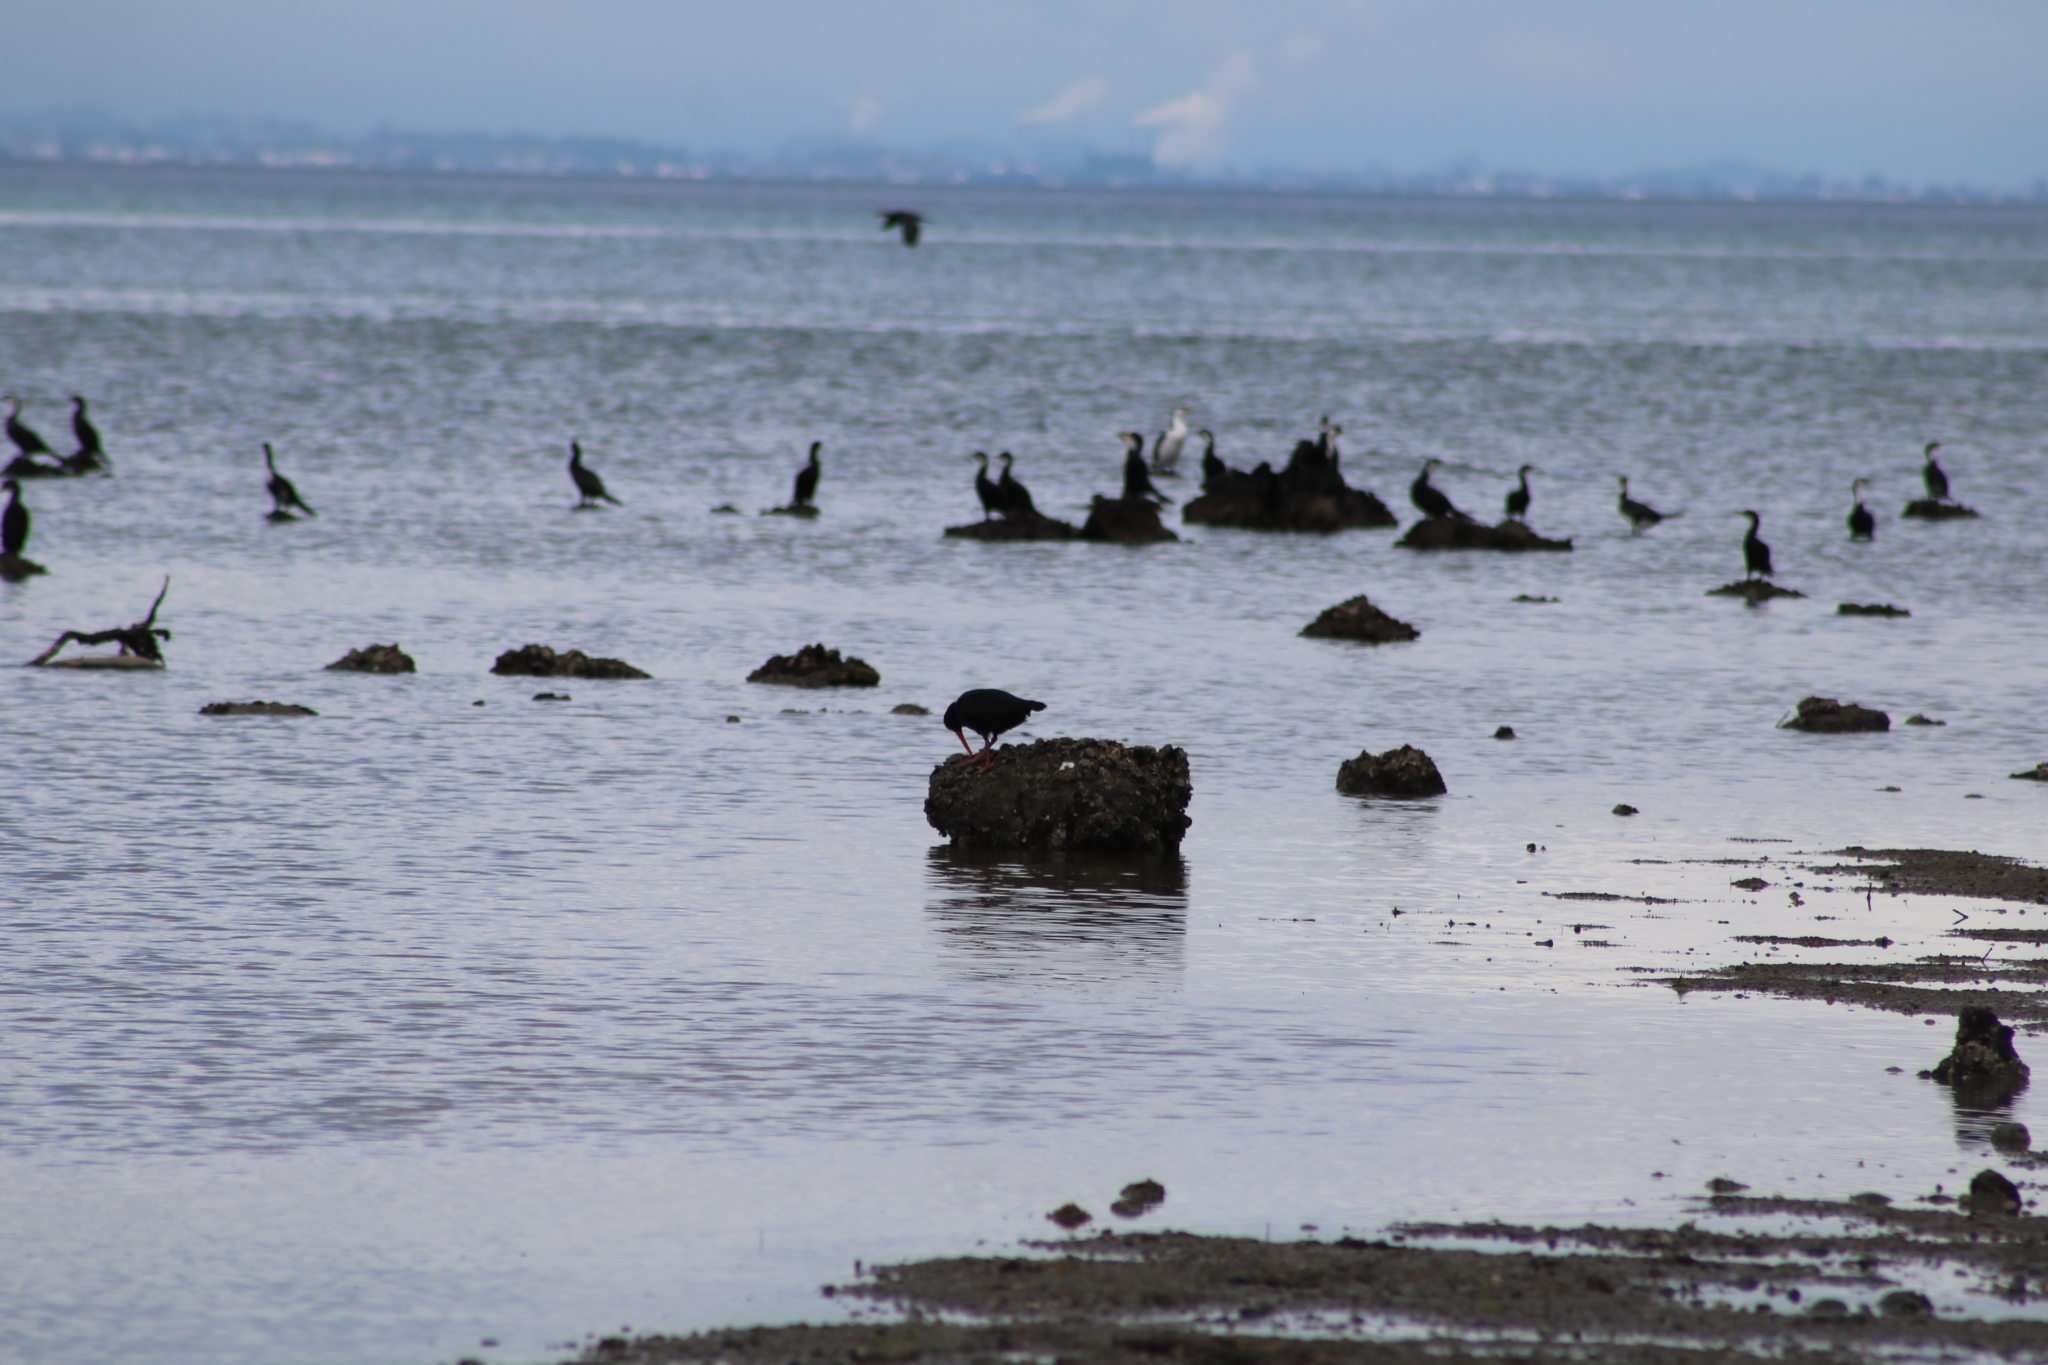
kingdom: Animalia
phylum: Chordata
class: Aves
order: Charadriiformes
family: Haematopodidae
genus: Haematopus
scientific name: Haematopus unicolor
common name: Variable oystercatcher
